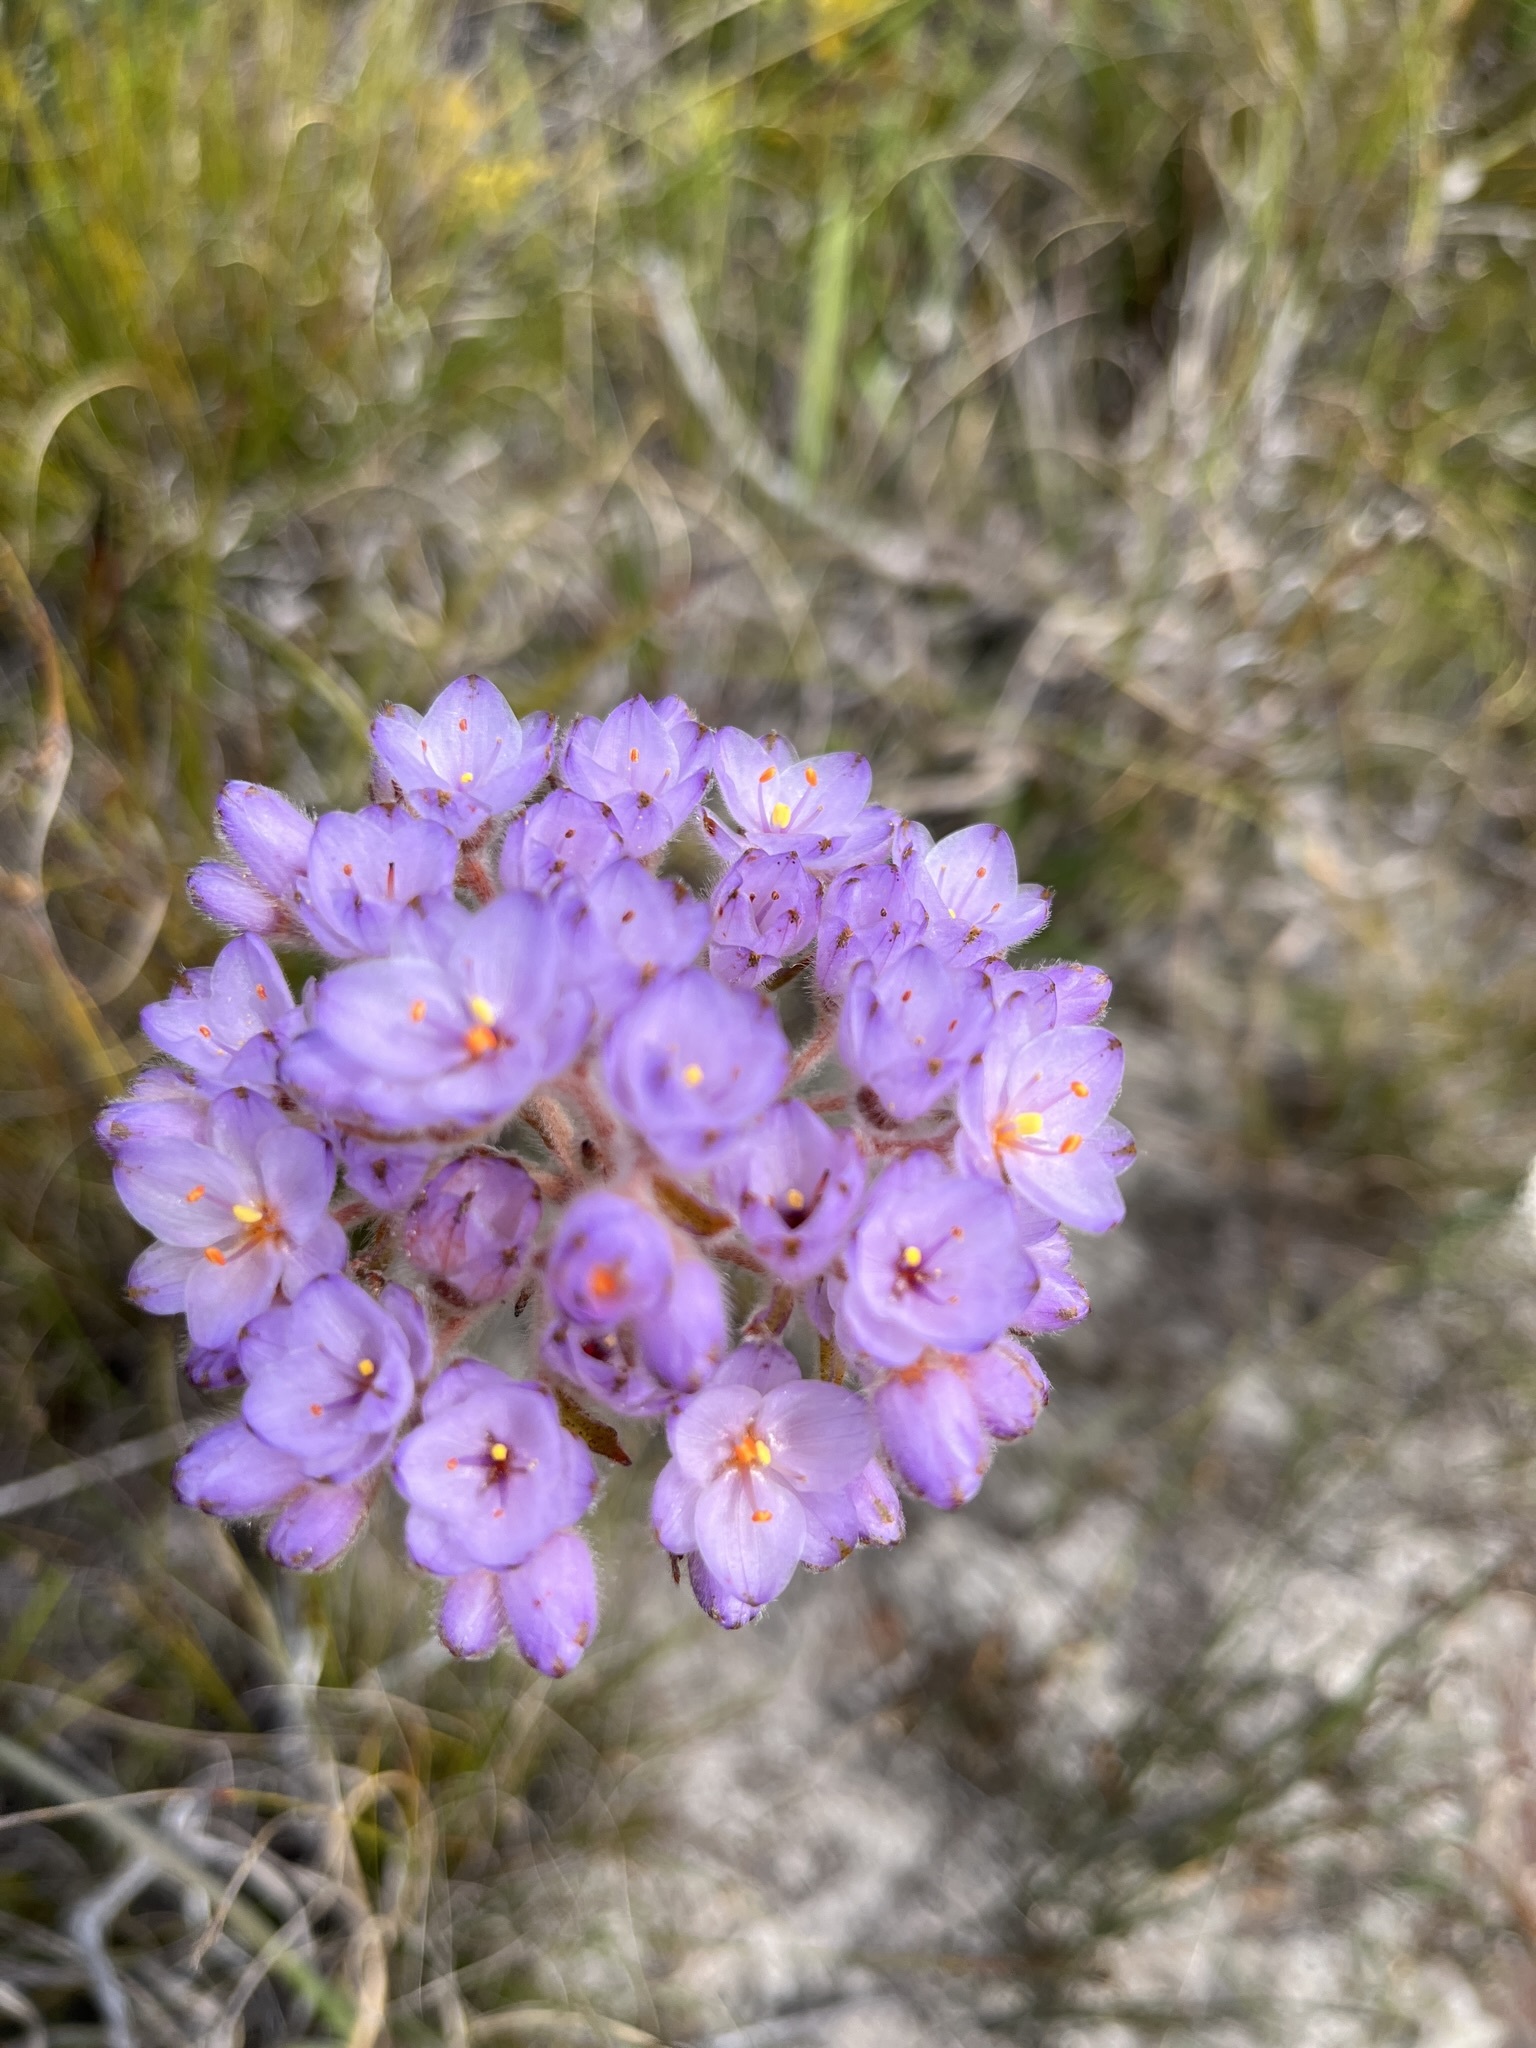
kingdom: Plantae
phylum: Tracheophyta
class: Liliopsida
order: Commelinales
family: Haemodoraceae
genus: Dilatris
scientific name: Dilatris pillansii
